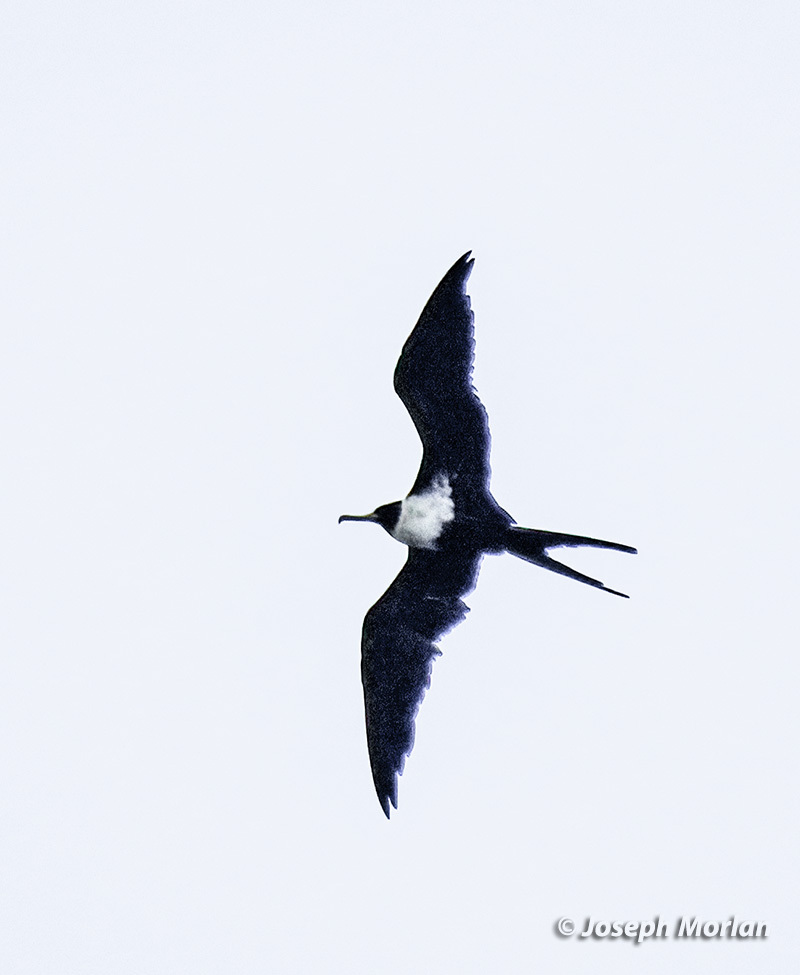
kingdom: Animalia
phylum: Chordata
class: Aves
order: Suliformes
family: Fregatidae
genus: Fregata
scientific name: Fregata ariel
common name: Lesser frigatebird
